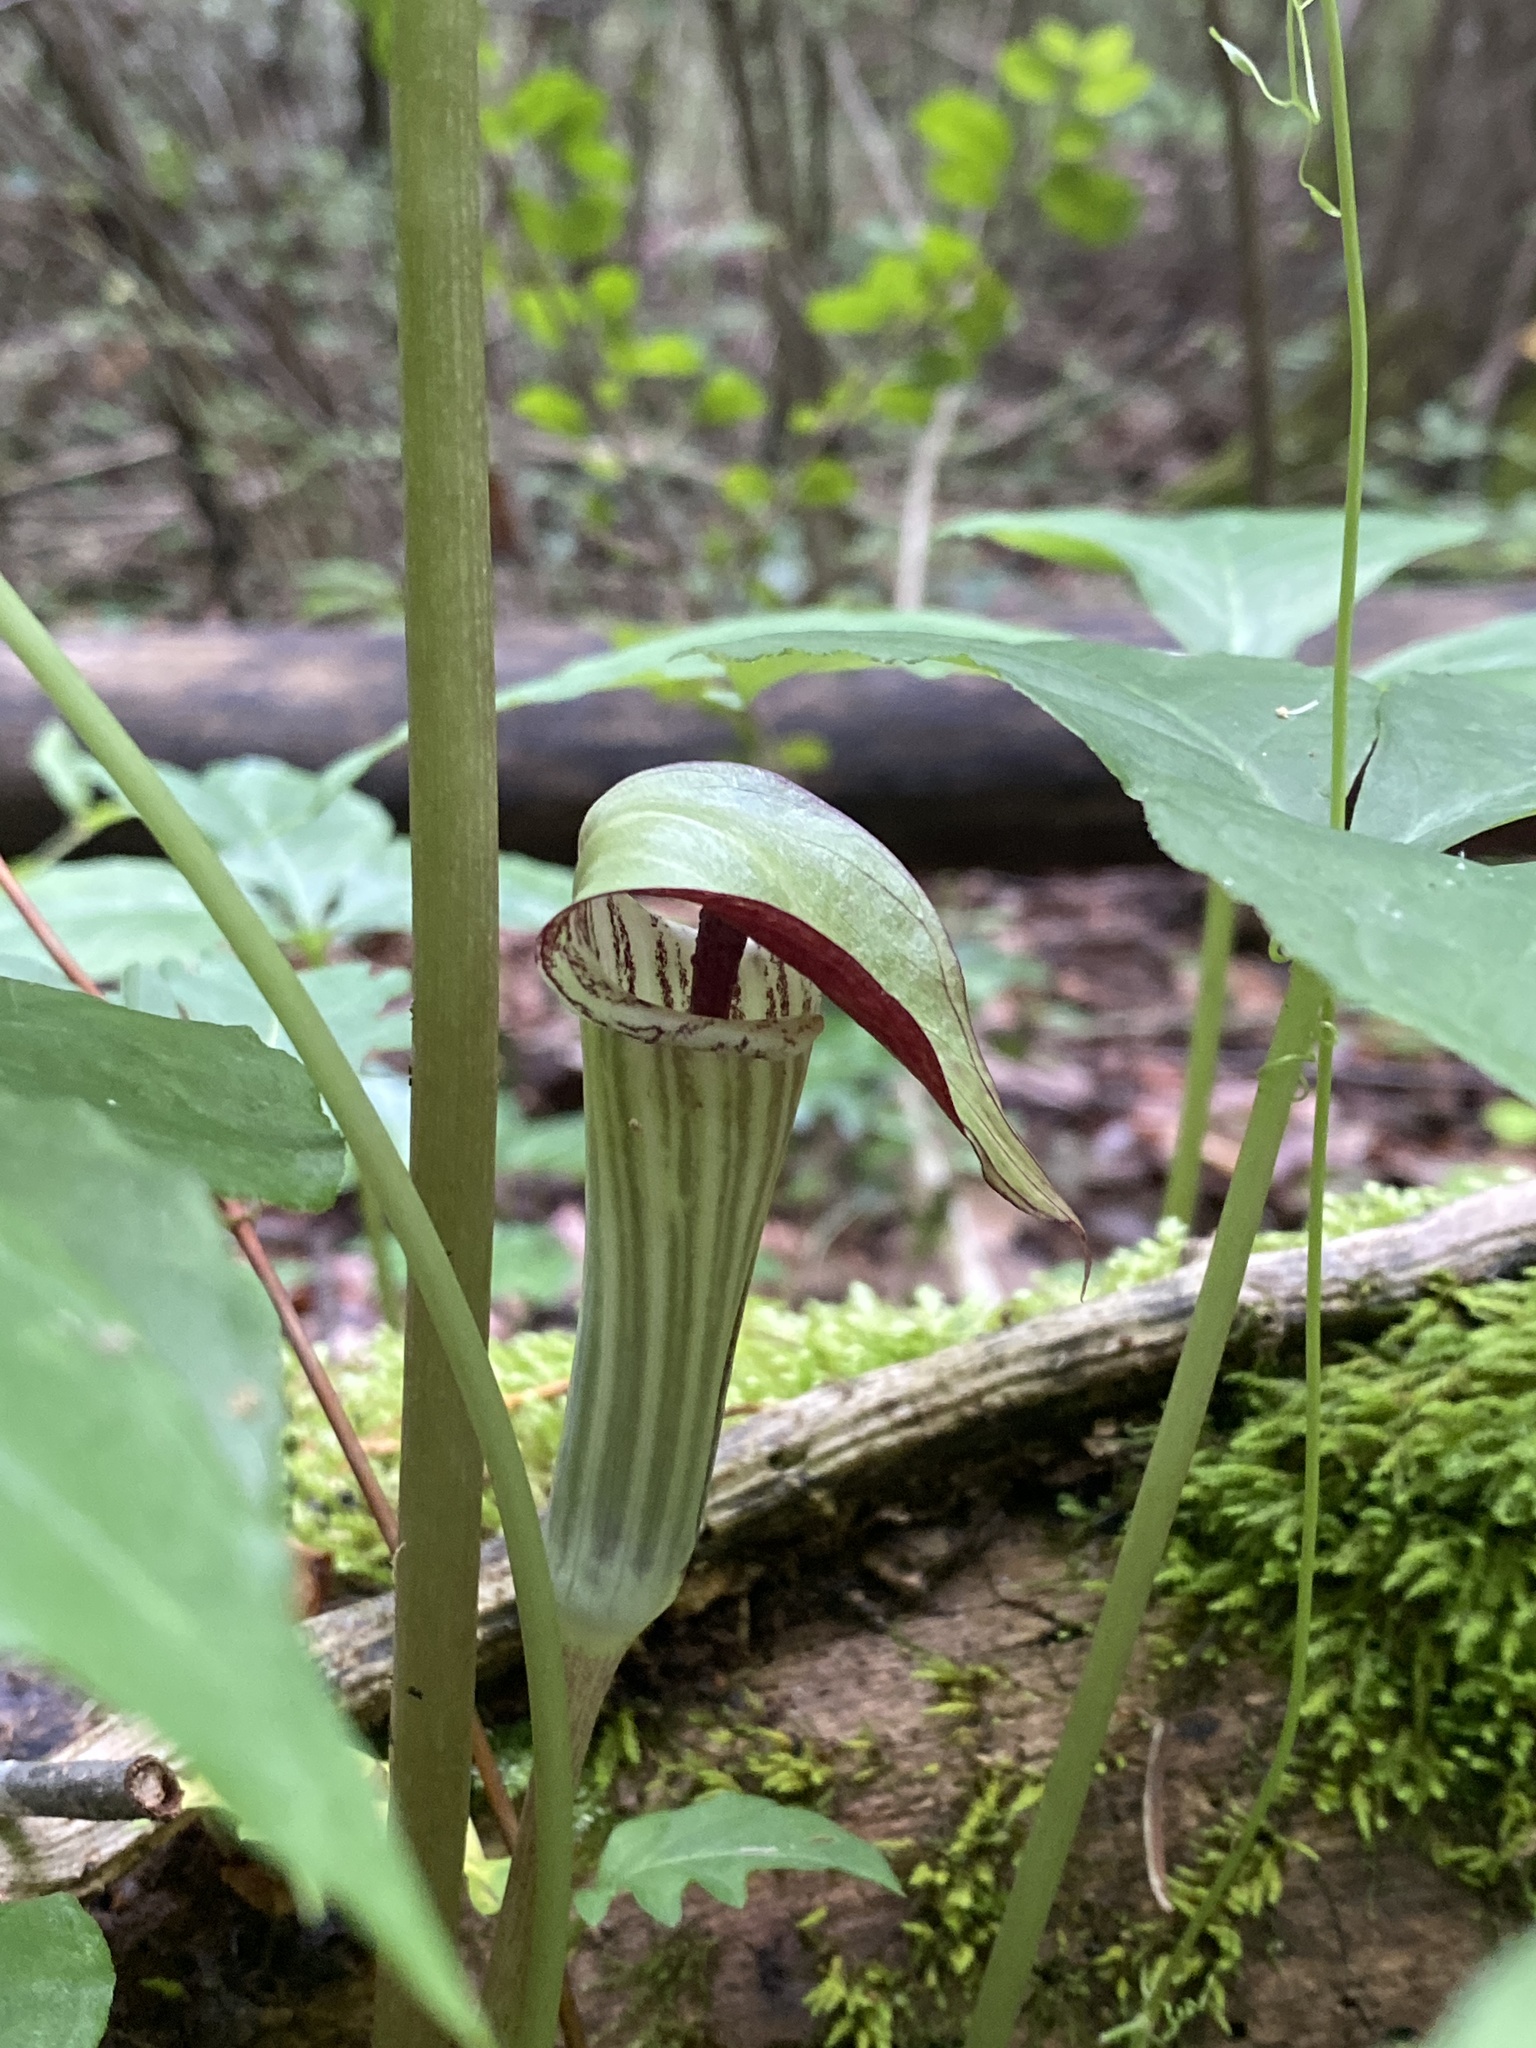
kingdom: Plantae
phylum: Tracheophyta
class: Liliopsida
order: Alismatales
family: Araceae
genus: Arisaema
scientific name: Arisaema triphyllum
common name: Jack-in-the-pulpit
